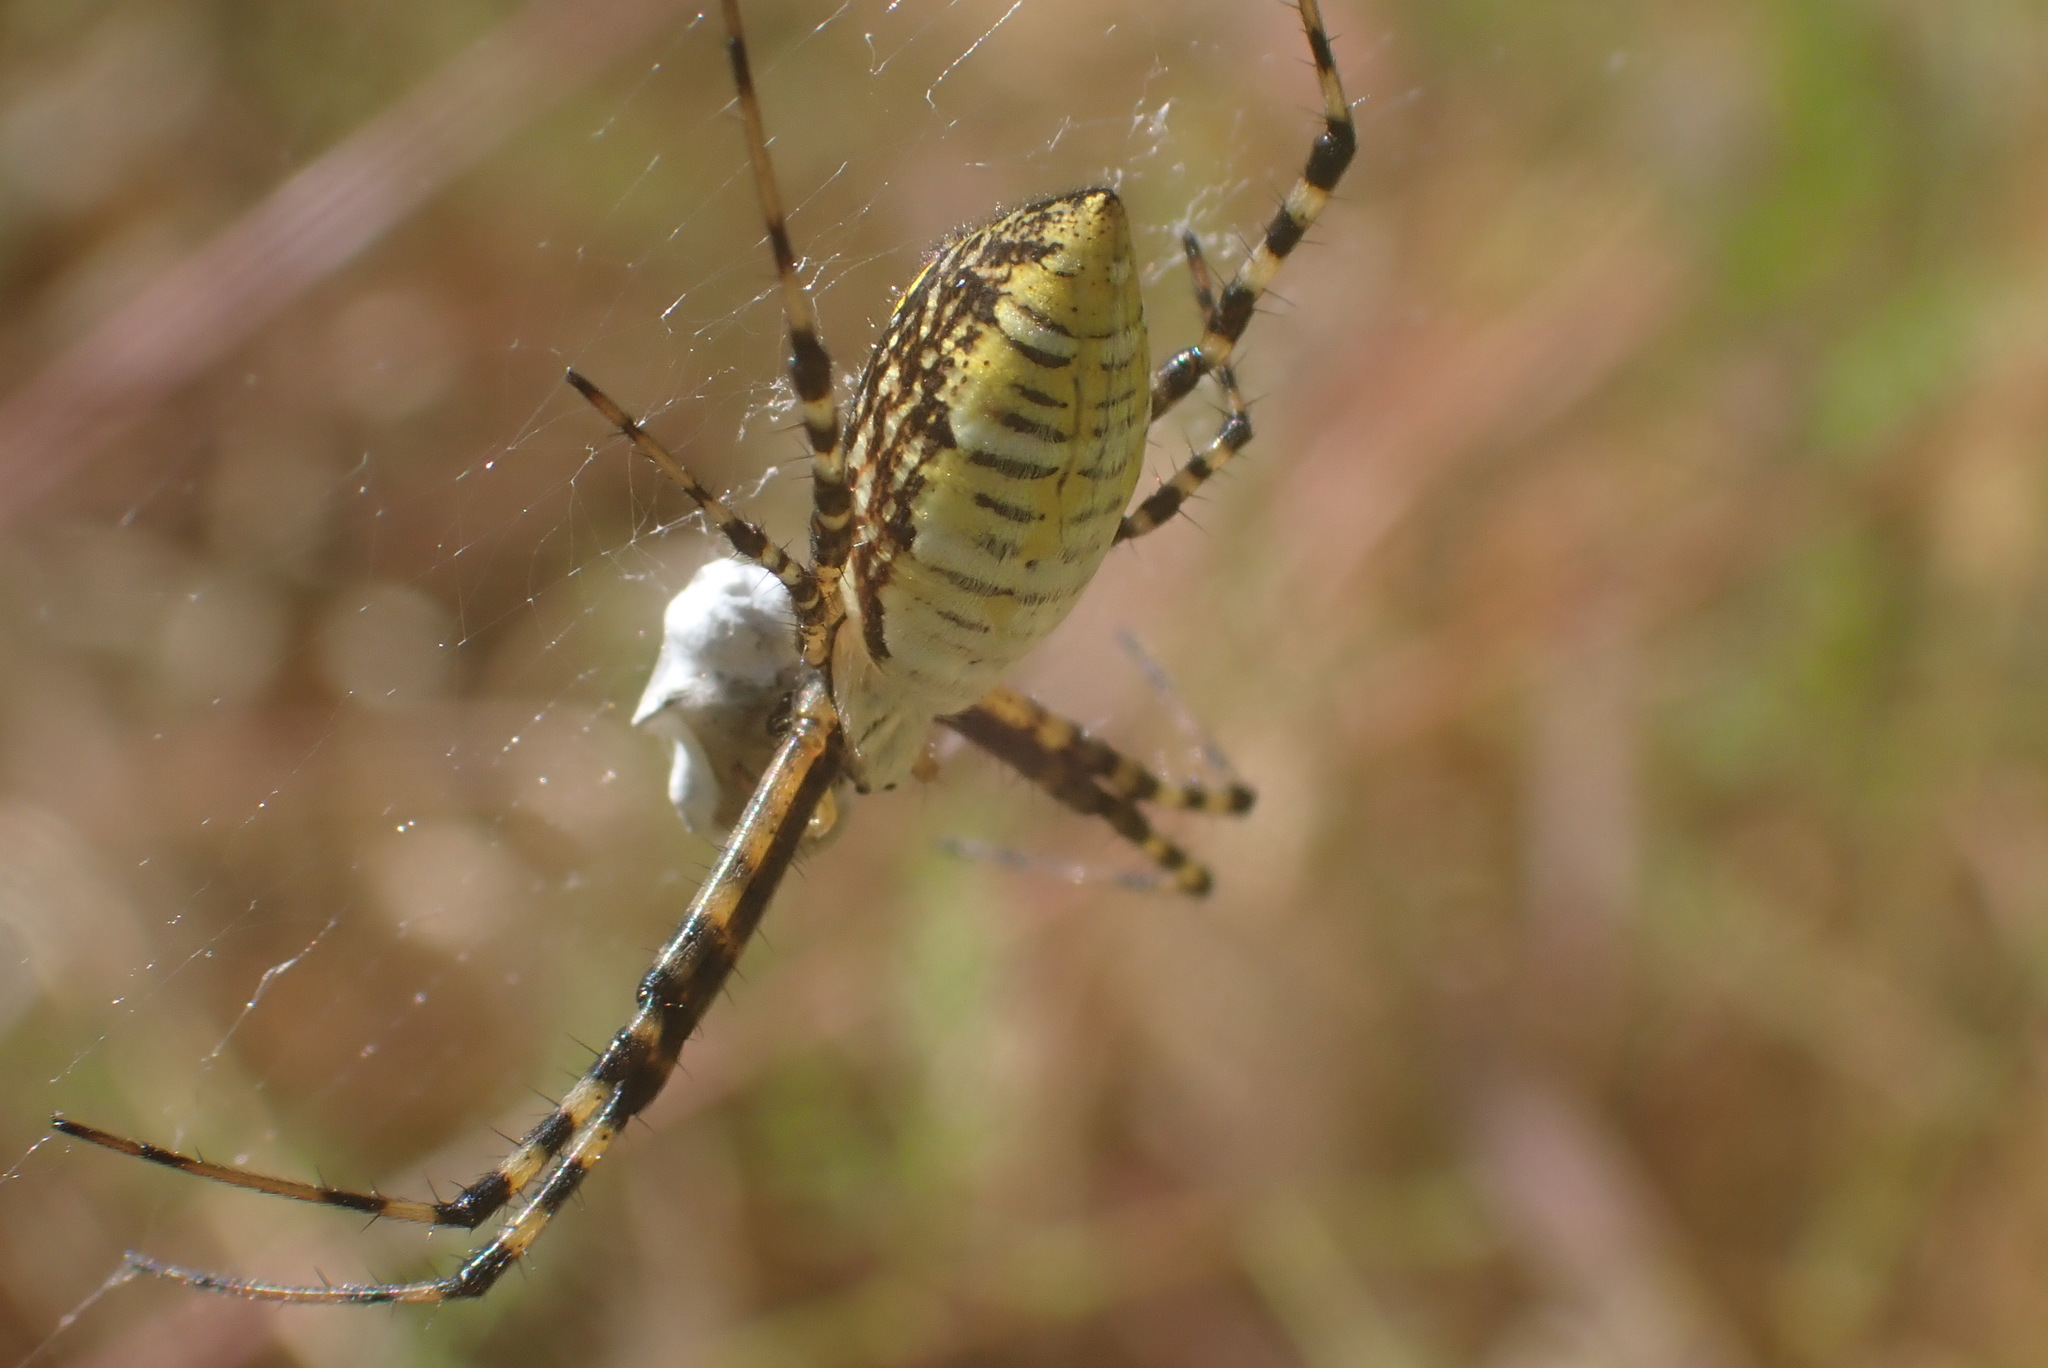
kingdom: Animalia
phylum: Arthropoda
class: Arachnida
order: Araneae
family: Araneidae
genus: Argiope
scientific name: Argiope trifasciata
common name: Banded garden spider
